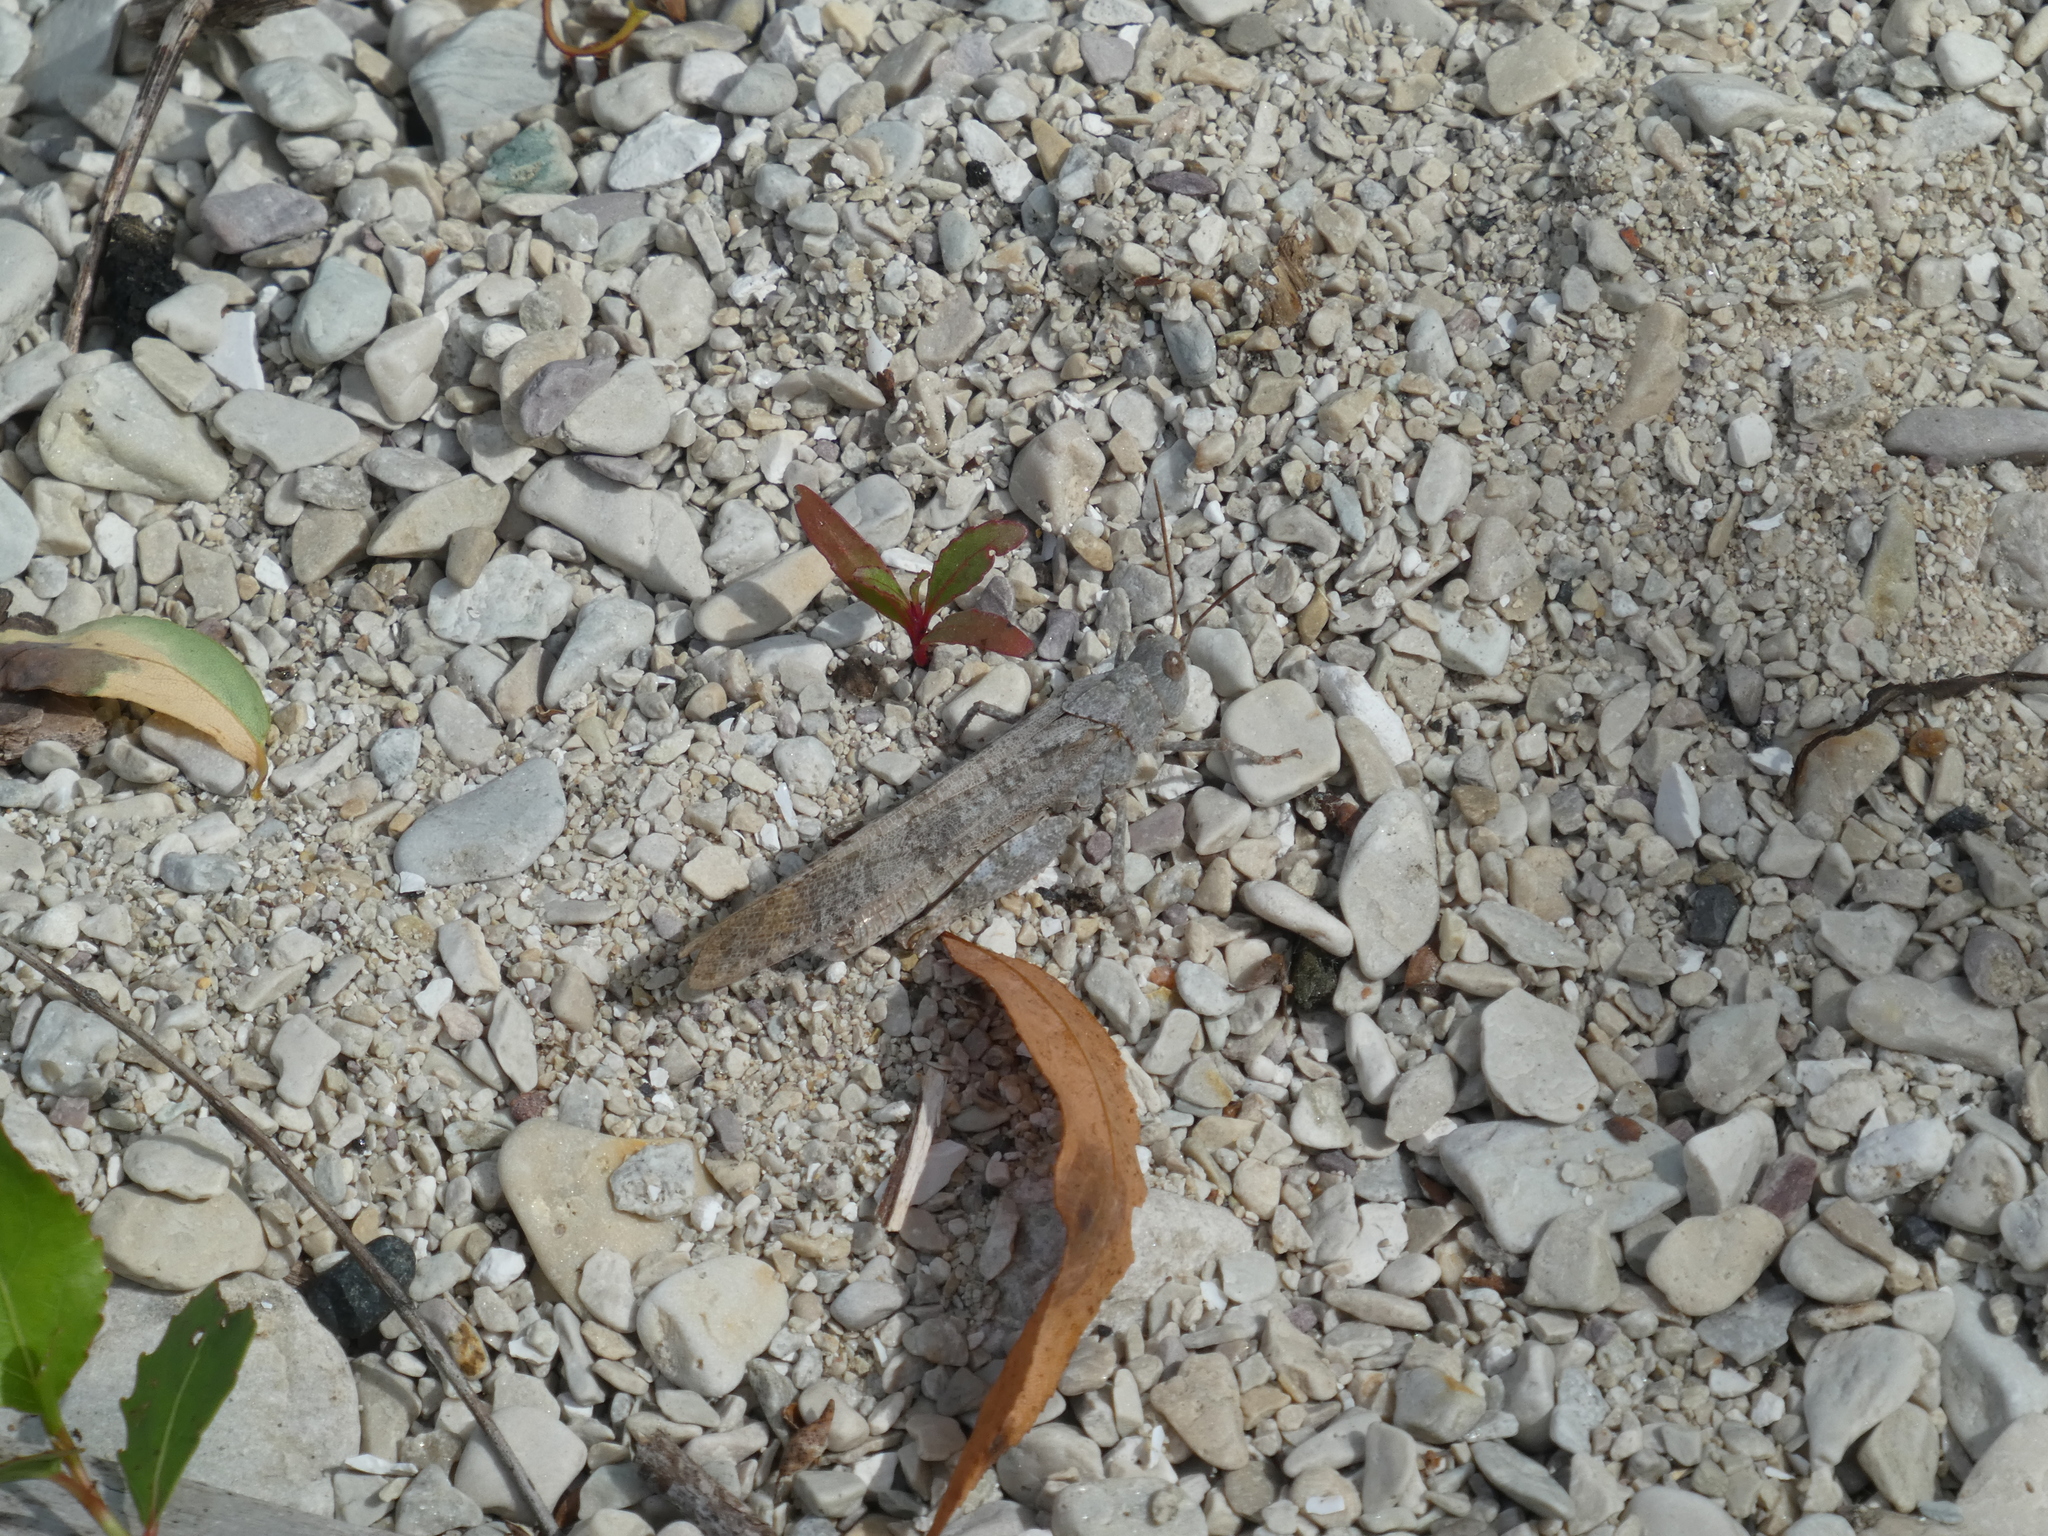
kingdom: Animalia
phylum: Arthropoda
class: Insecta
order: Orthoptera
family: Acrididae
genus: Dissosteira
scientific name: Dissosteira carolina
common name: Carolina grasshopper
